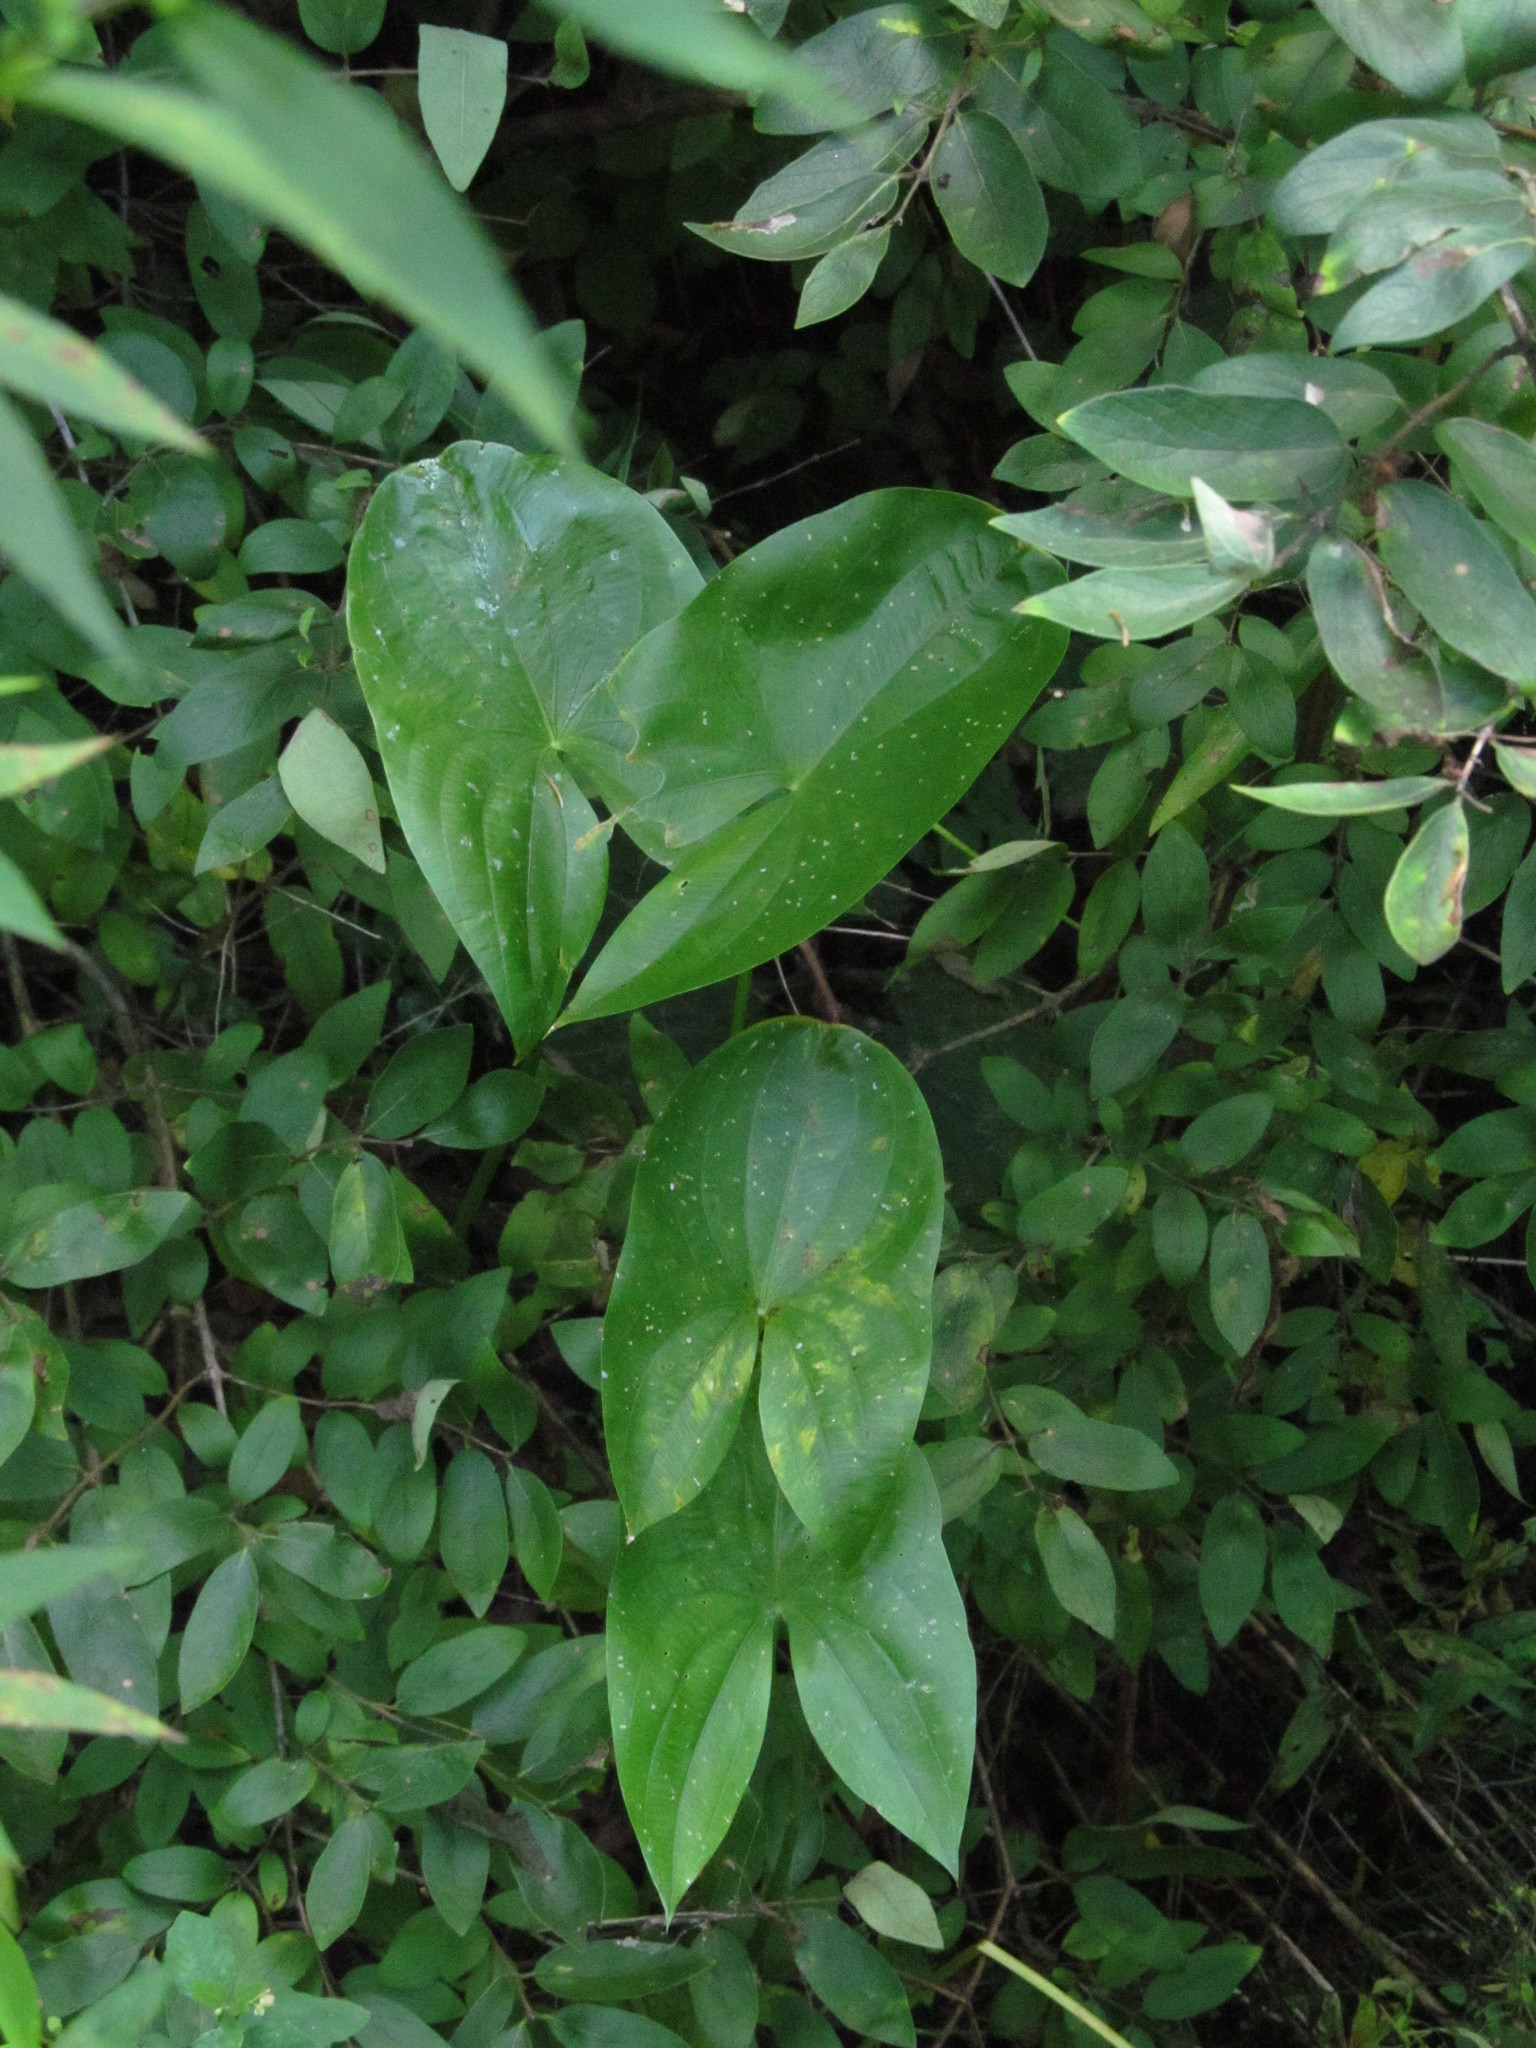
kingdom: Plantae
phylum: Tracheophyta
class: Liliopsida
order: Alismatales
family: Alismataceae
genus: Sagittaria
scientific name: Sagittaria latifolia
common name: Duck-potato
